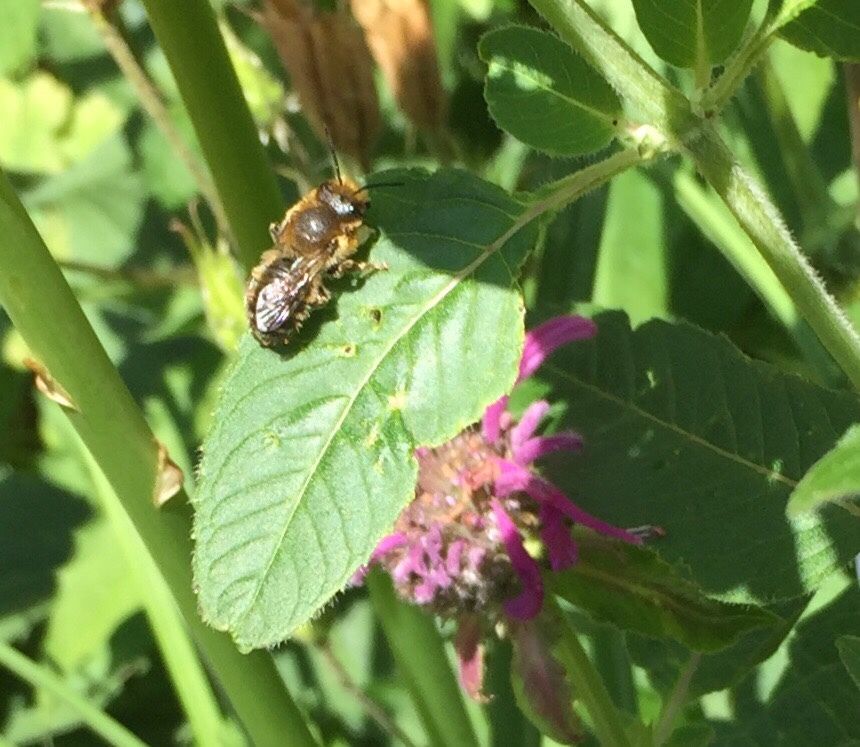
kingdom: Animalia
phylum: Arthropoda
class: Insecta
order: Hymenoptera
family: Megachilidae
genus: Megachile
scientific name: Megachile frigida
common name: Frigid leafcutter
